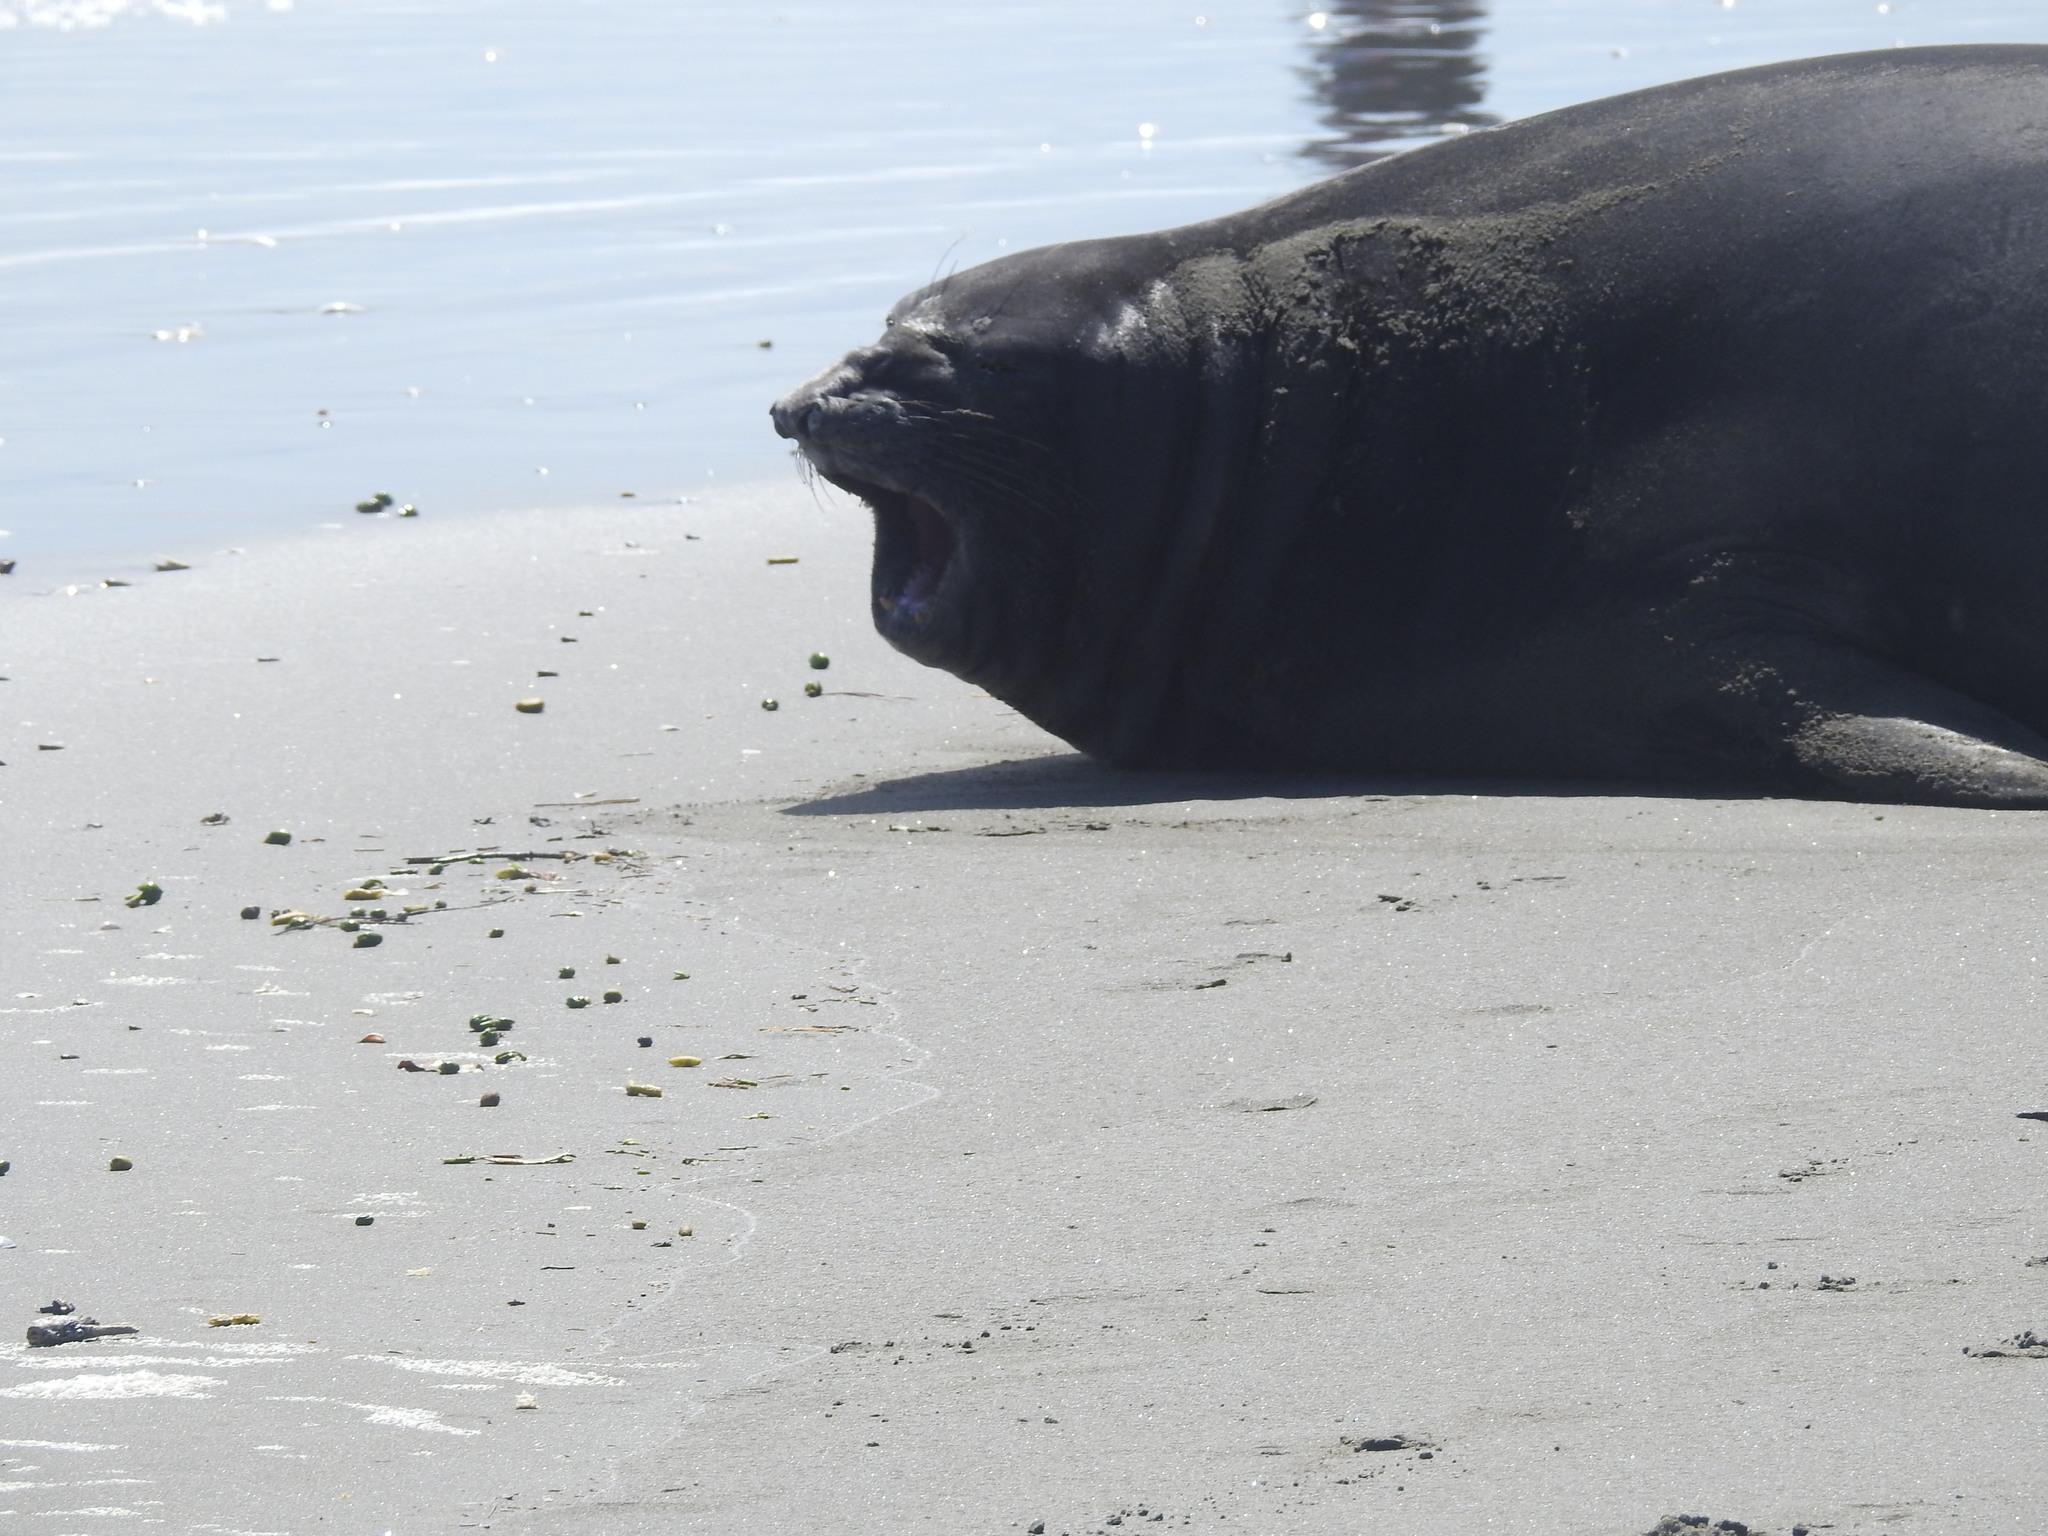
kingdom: Animalia
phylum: Chordata
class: Mammalia
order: Carnivora
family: Phocidae
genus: Mirounga
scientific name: Mirounga leonina
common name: Southern elephant seal
